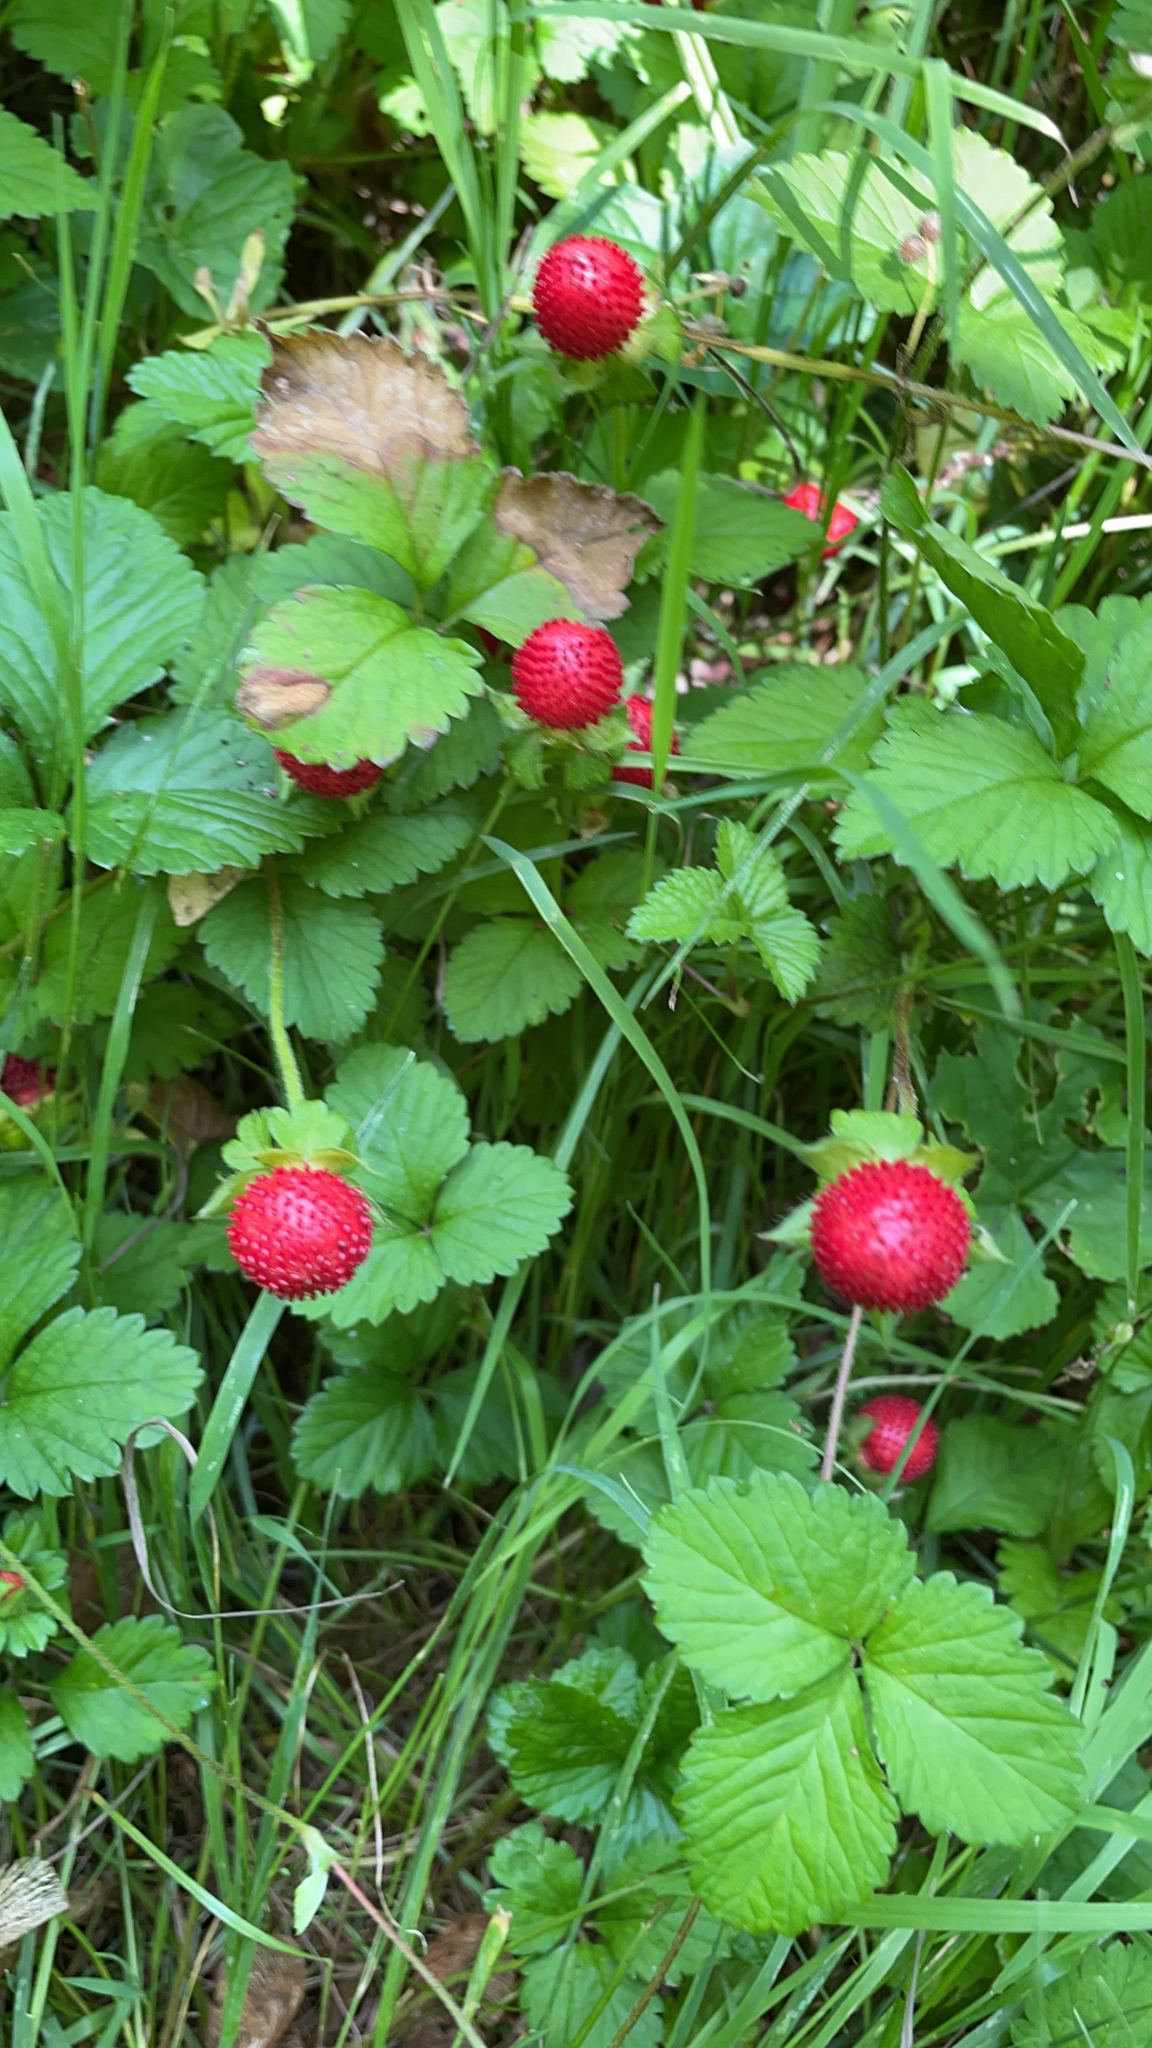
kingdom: Plantae
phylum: Tracheophyta
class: Magnoliopsida
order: Rosales
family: Rosaceae
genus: Potentilla
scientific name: Potentilla indica
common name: Yellow-flowered strawberry
